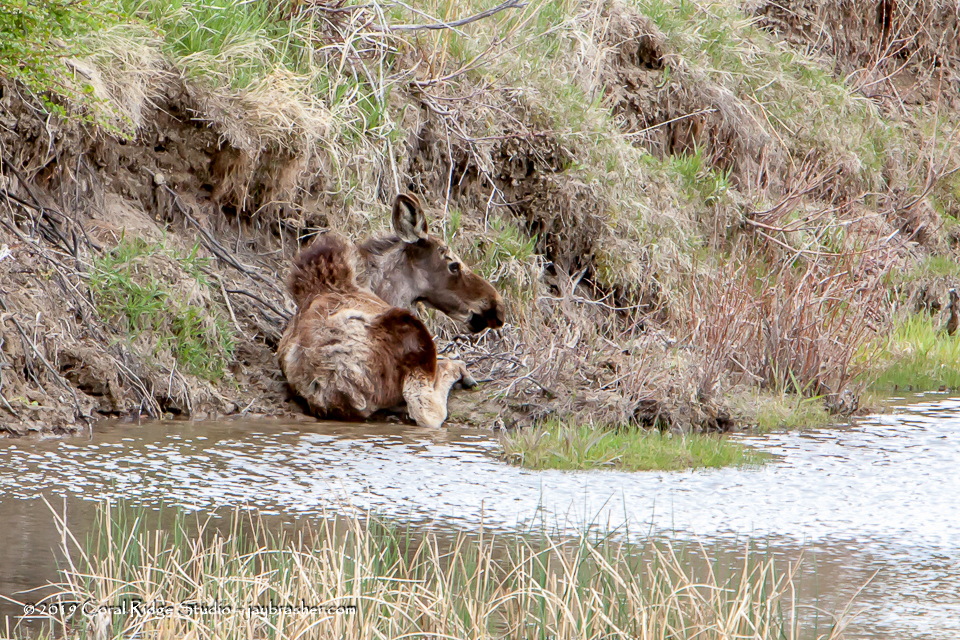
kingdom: Animalia
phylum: Chordata
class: Mammalia
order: Artiodactyla
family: Cervidae
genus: Alces
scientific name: Alces alces
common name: Moose
